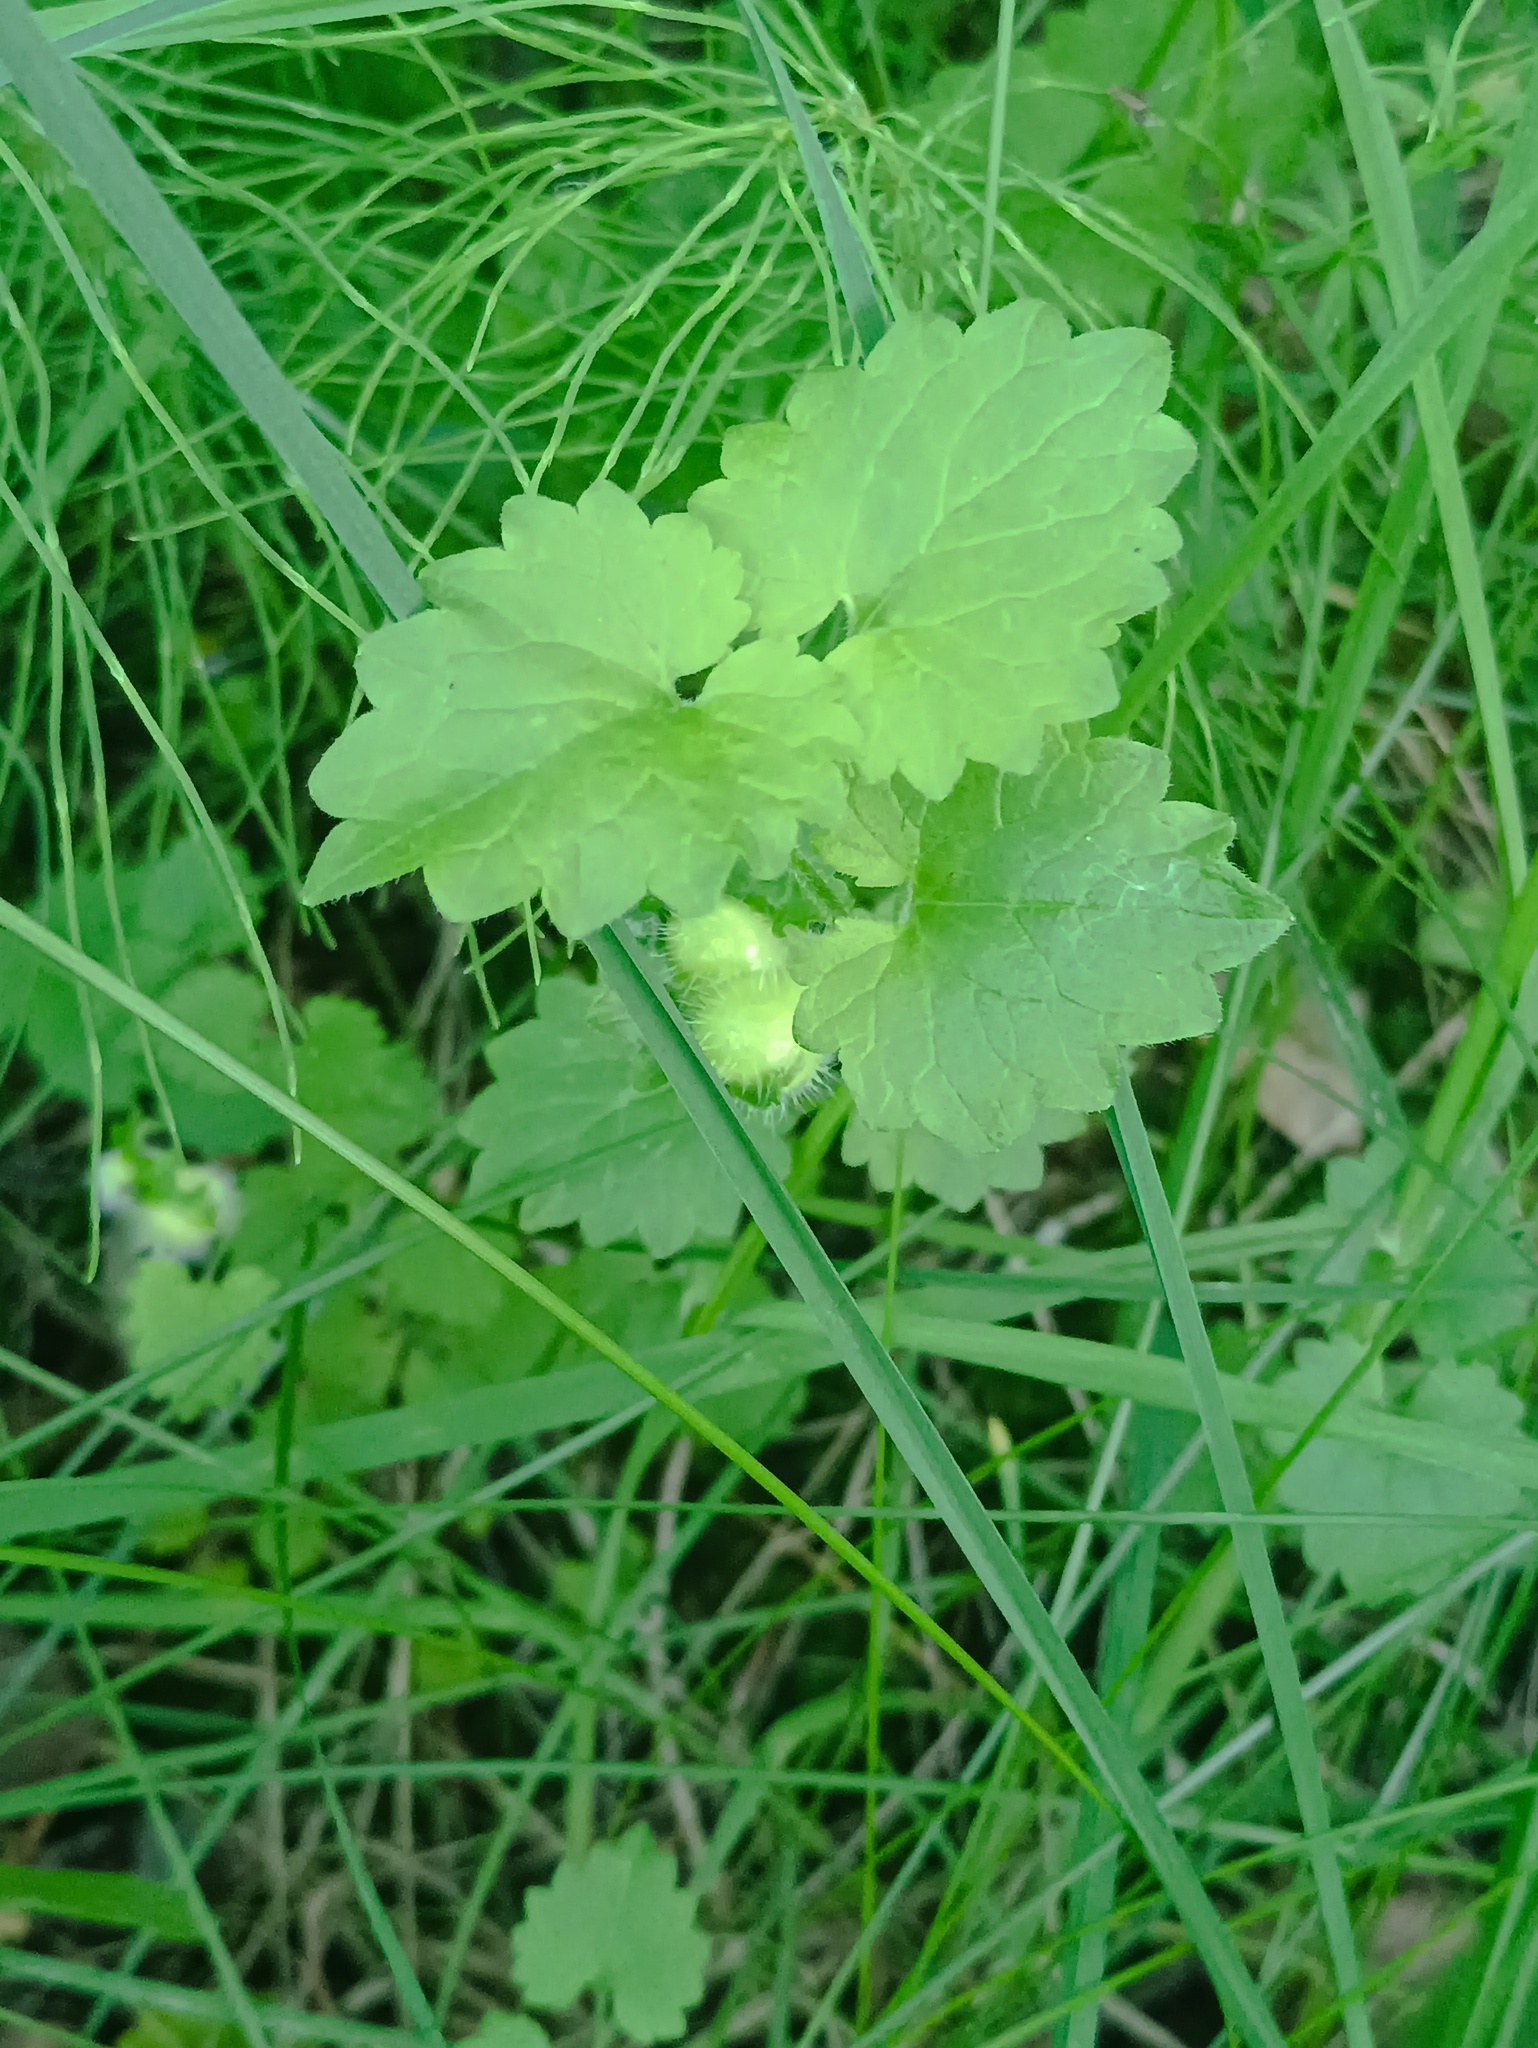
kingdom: Animalia
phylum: Arthropoda
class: Insecta
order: Hymenoptera
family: Cynipidae
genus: Liposthenes
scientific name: Liposthenes glechomae
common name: Gall wasp
